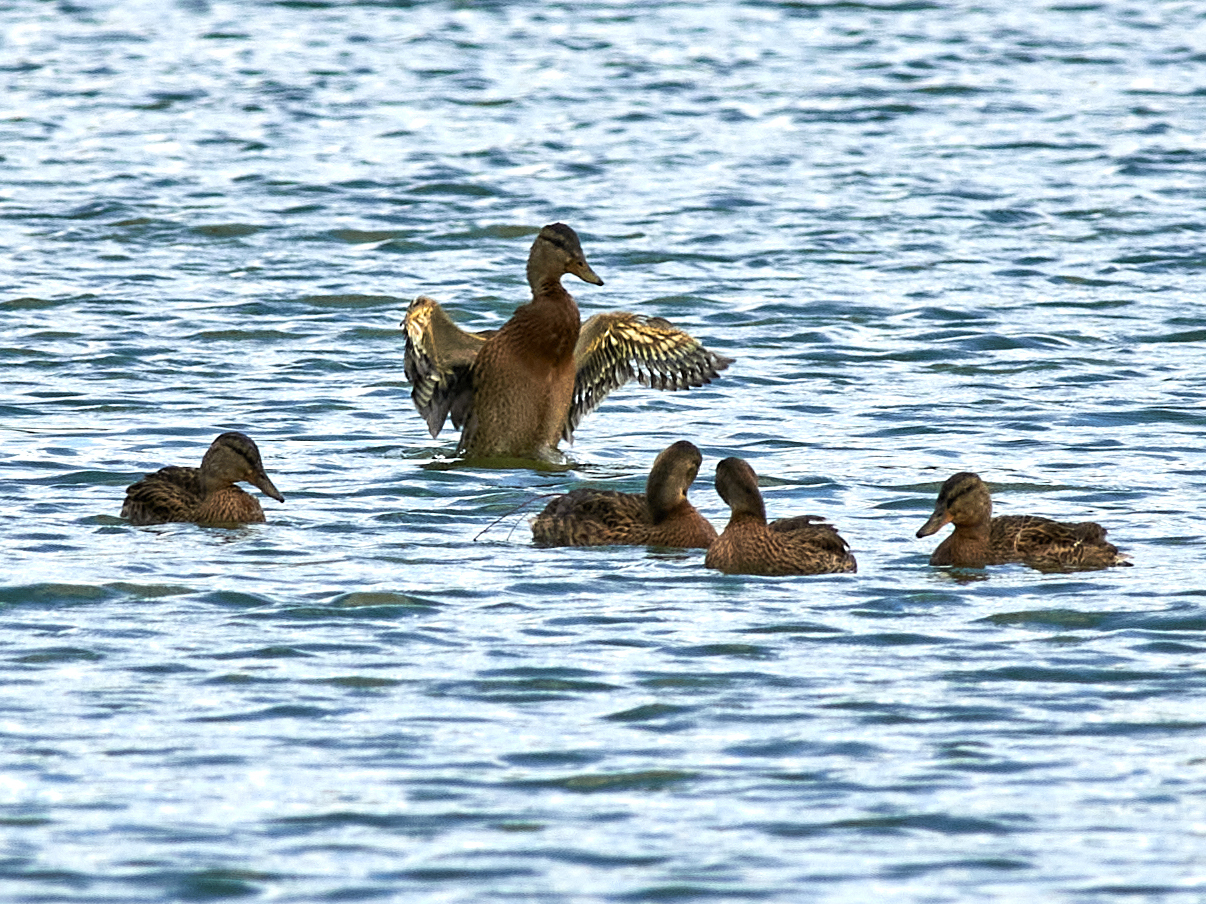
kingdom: Animalia
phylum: Chordata
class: Aves
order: Anseriformes
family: Anatidae
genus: Anas
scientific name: Anas platyrhynchos
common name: Mallard
